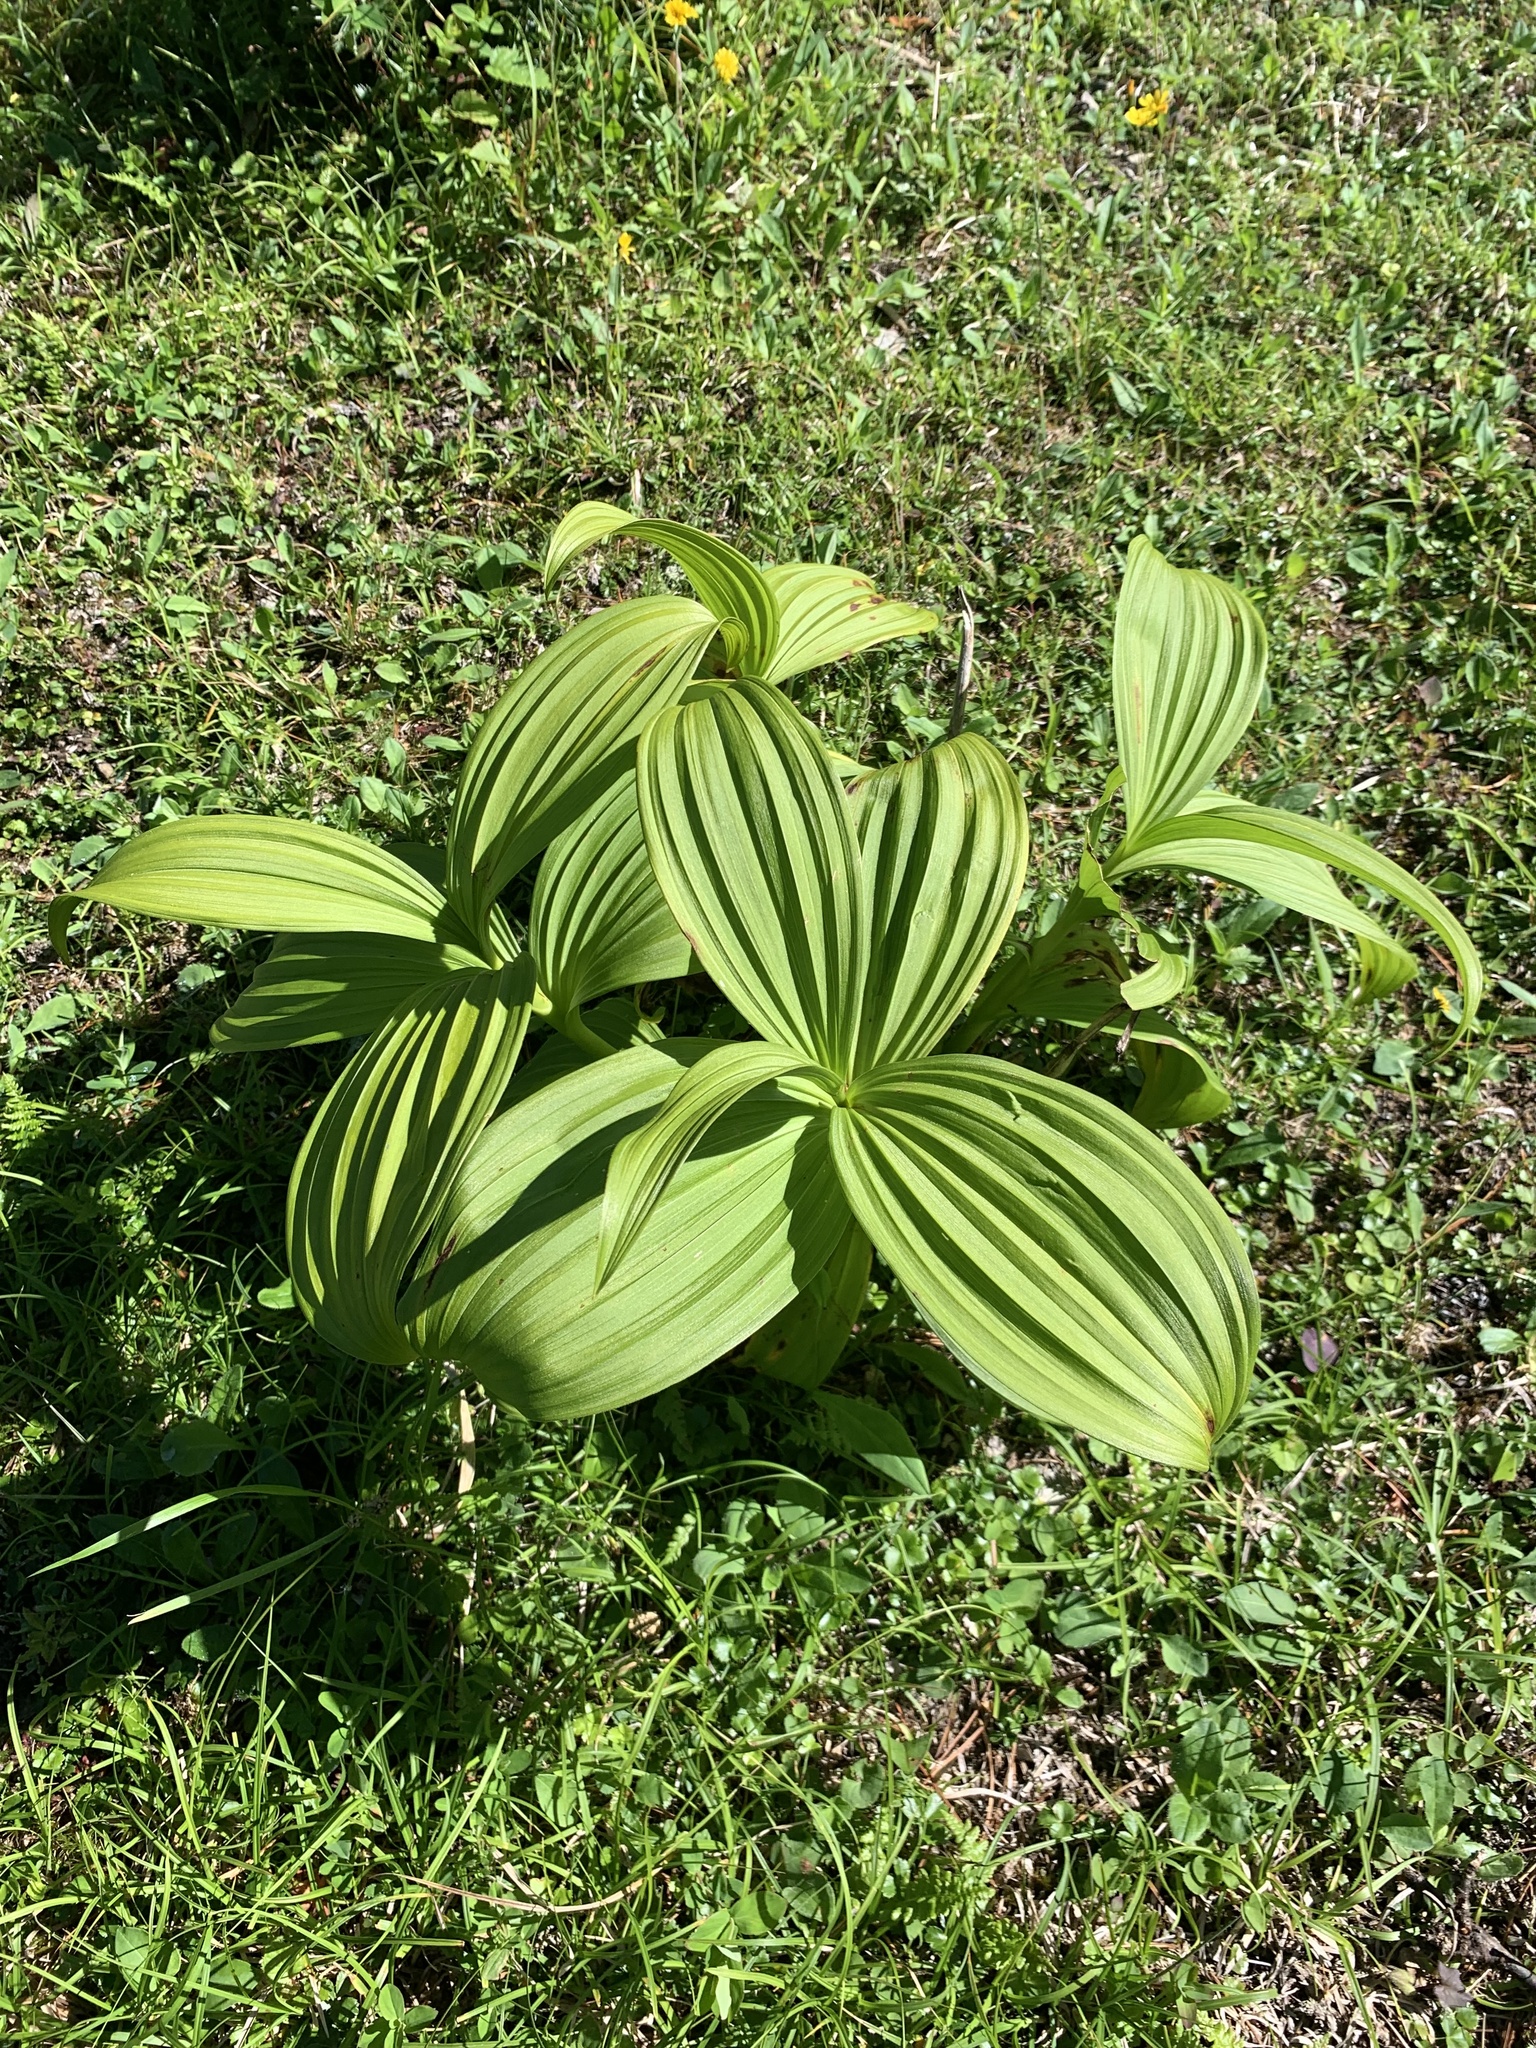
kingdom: Plantae
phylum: Tracheophyta
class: Liliopsida
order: Liliales
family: Melanthiaceae
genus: Veratrum
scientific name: Veratrum oxysepalum
